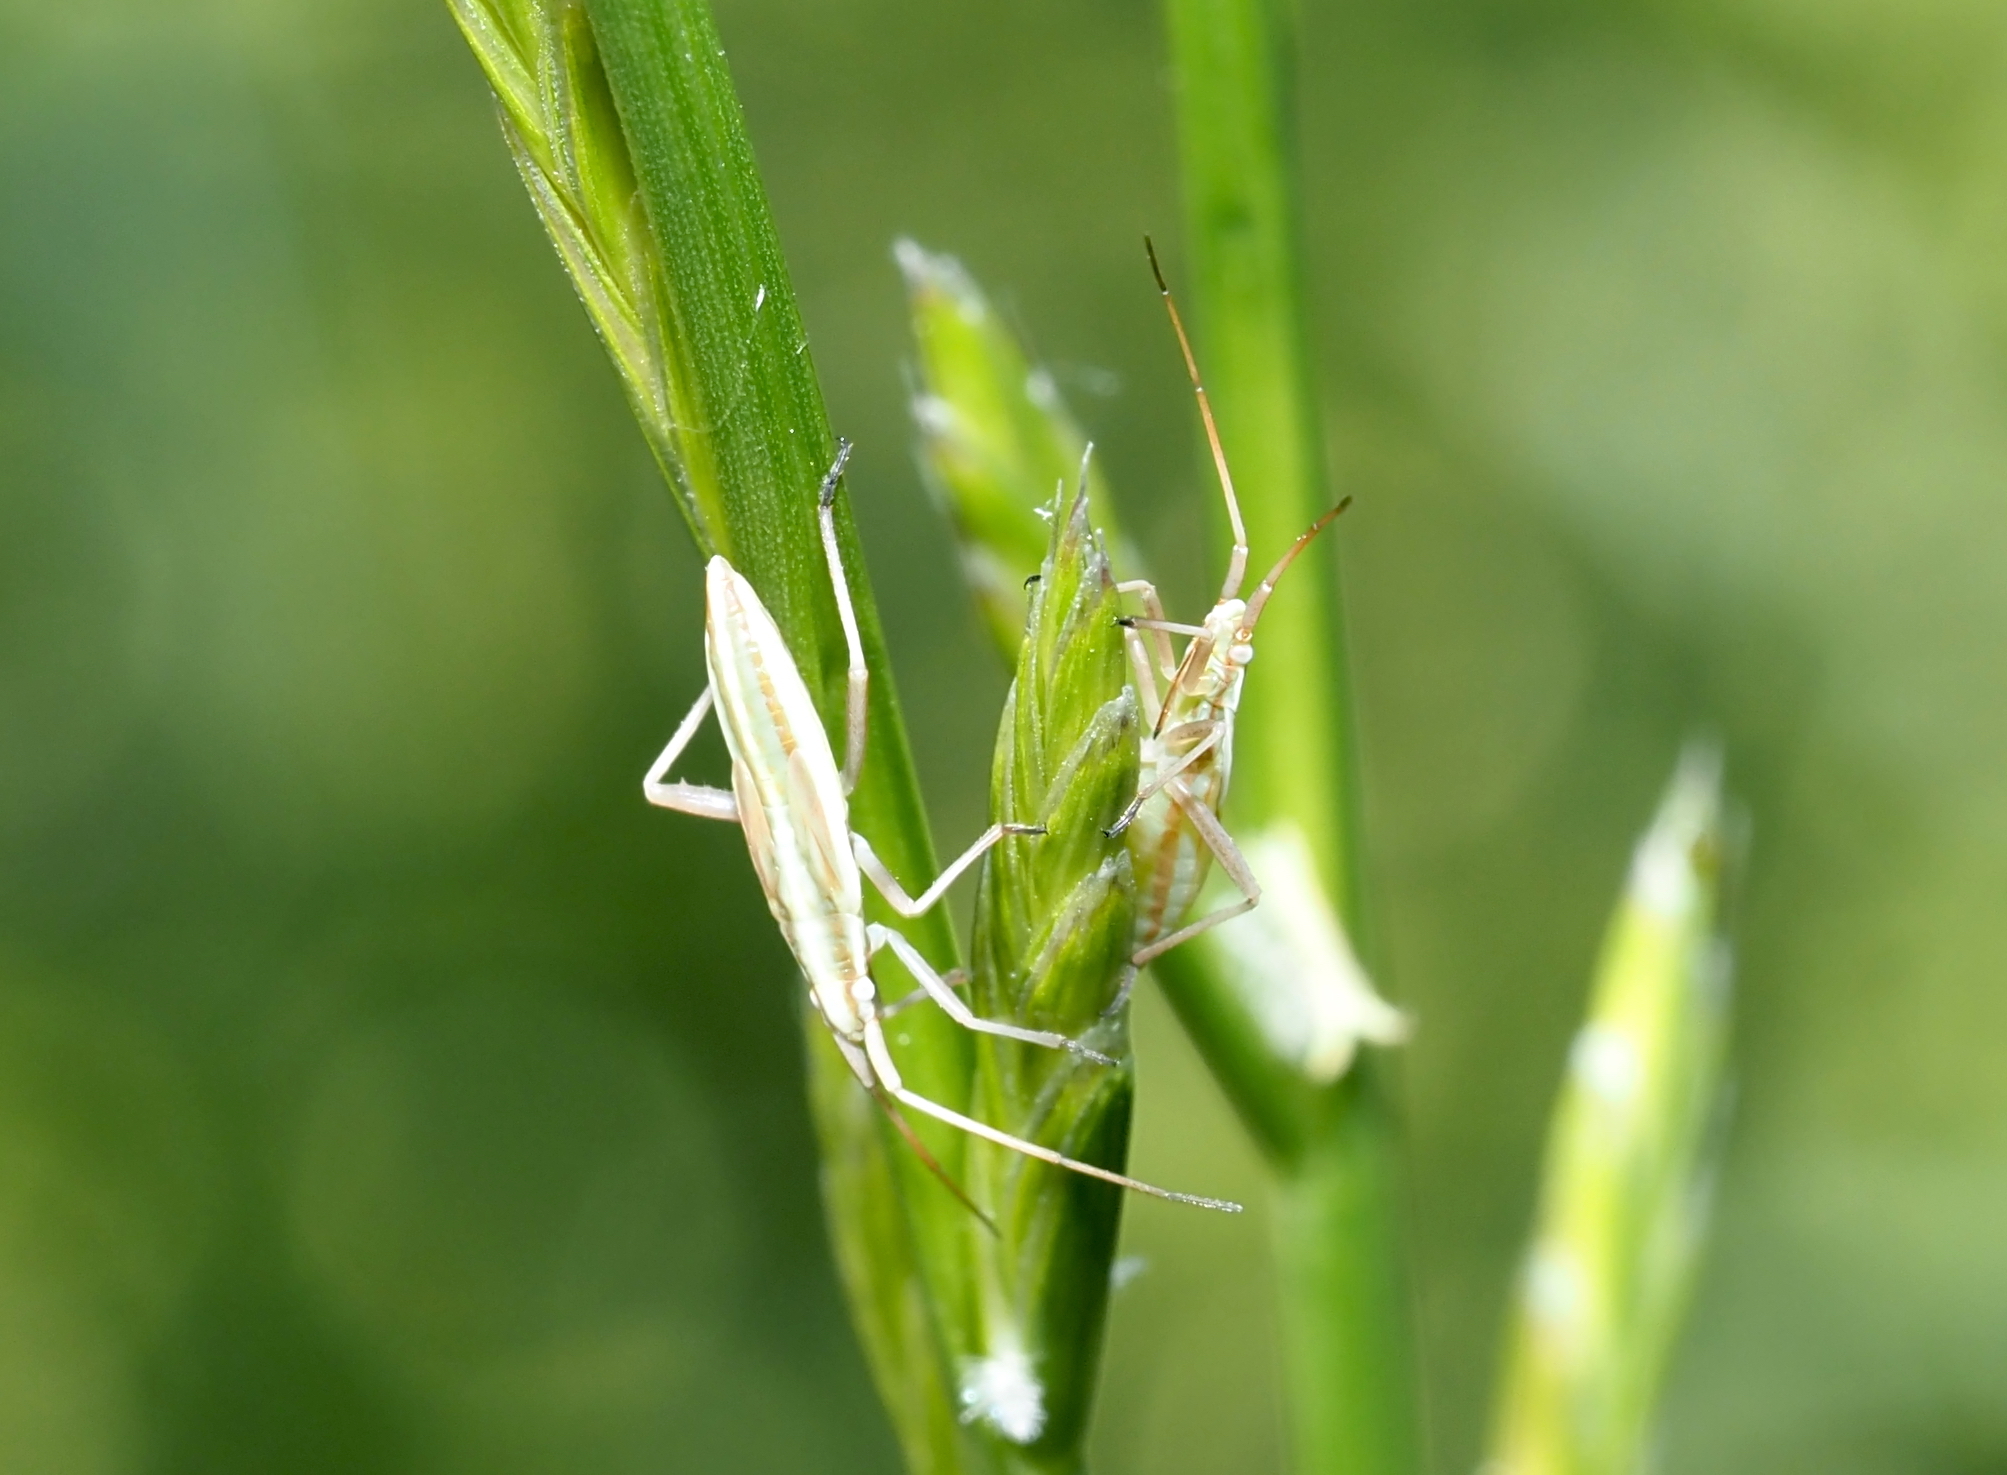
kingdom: Animalia
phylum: Arthropoda
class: Insecta
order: Hemiptera
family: Miridae
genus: Stenodema
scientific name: Stenodema trispinosa
